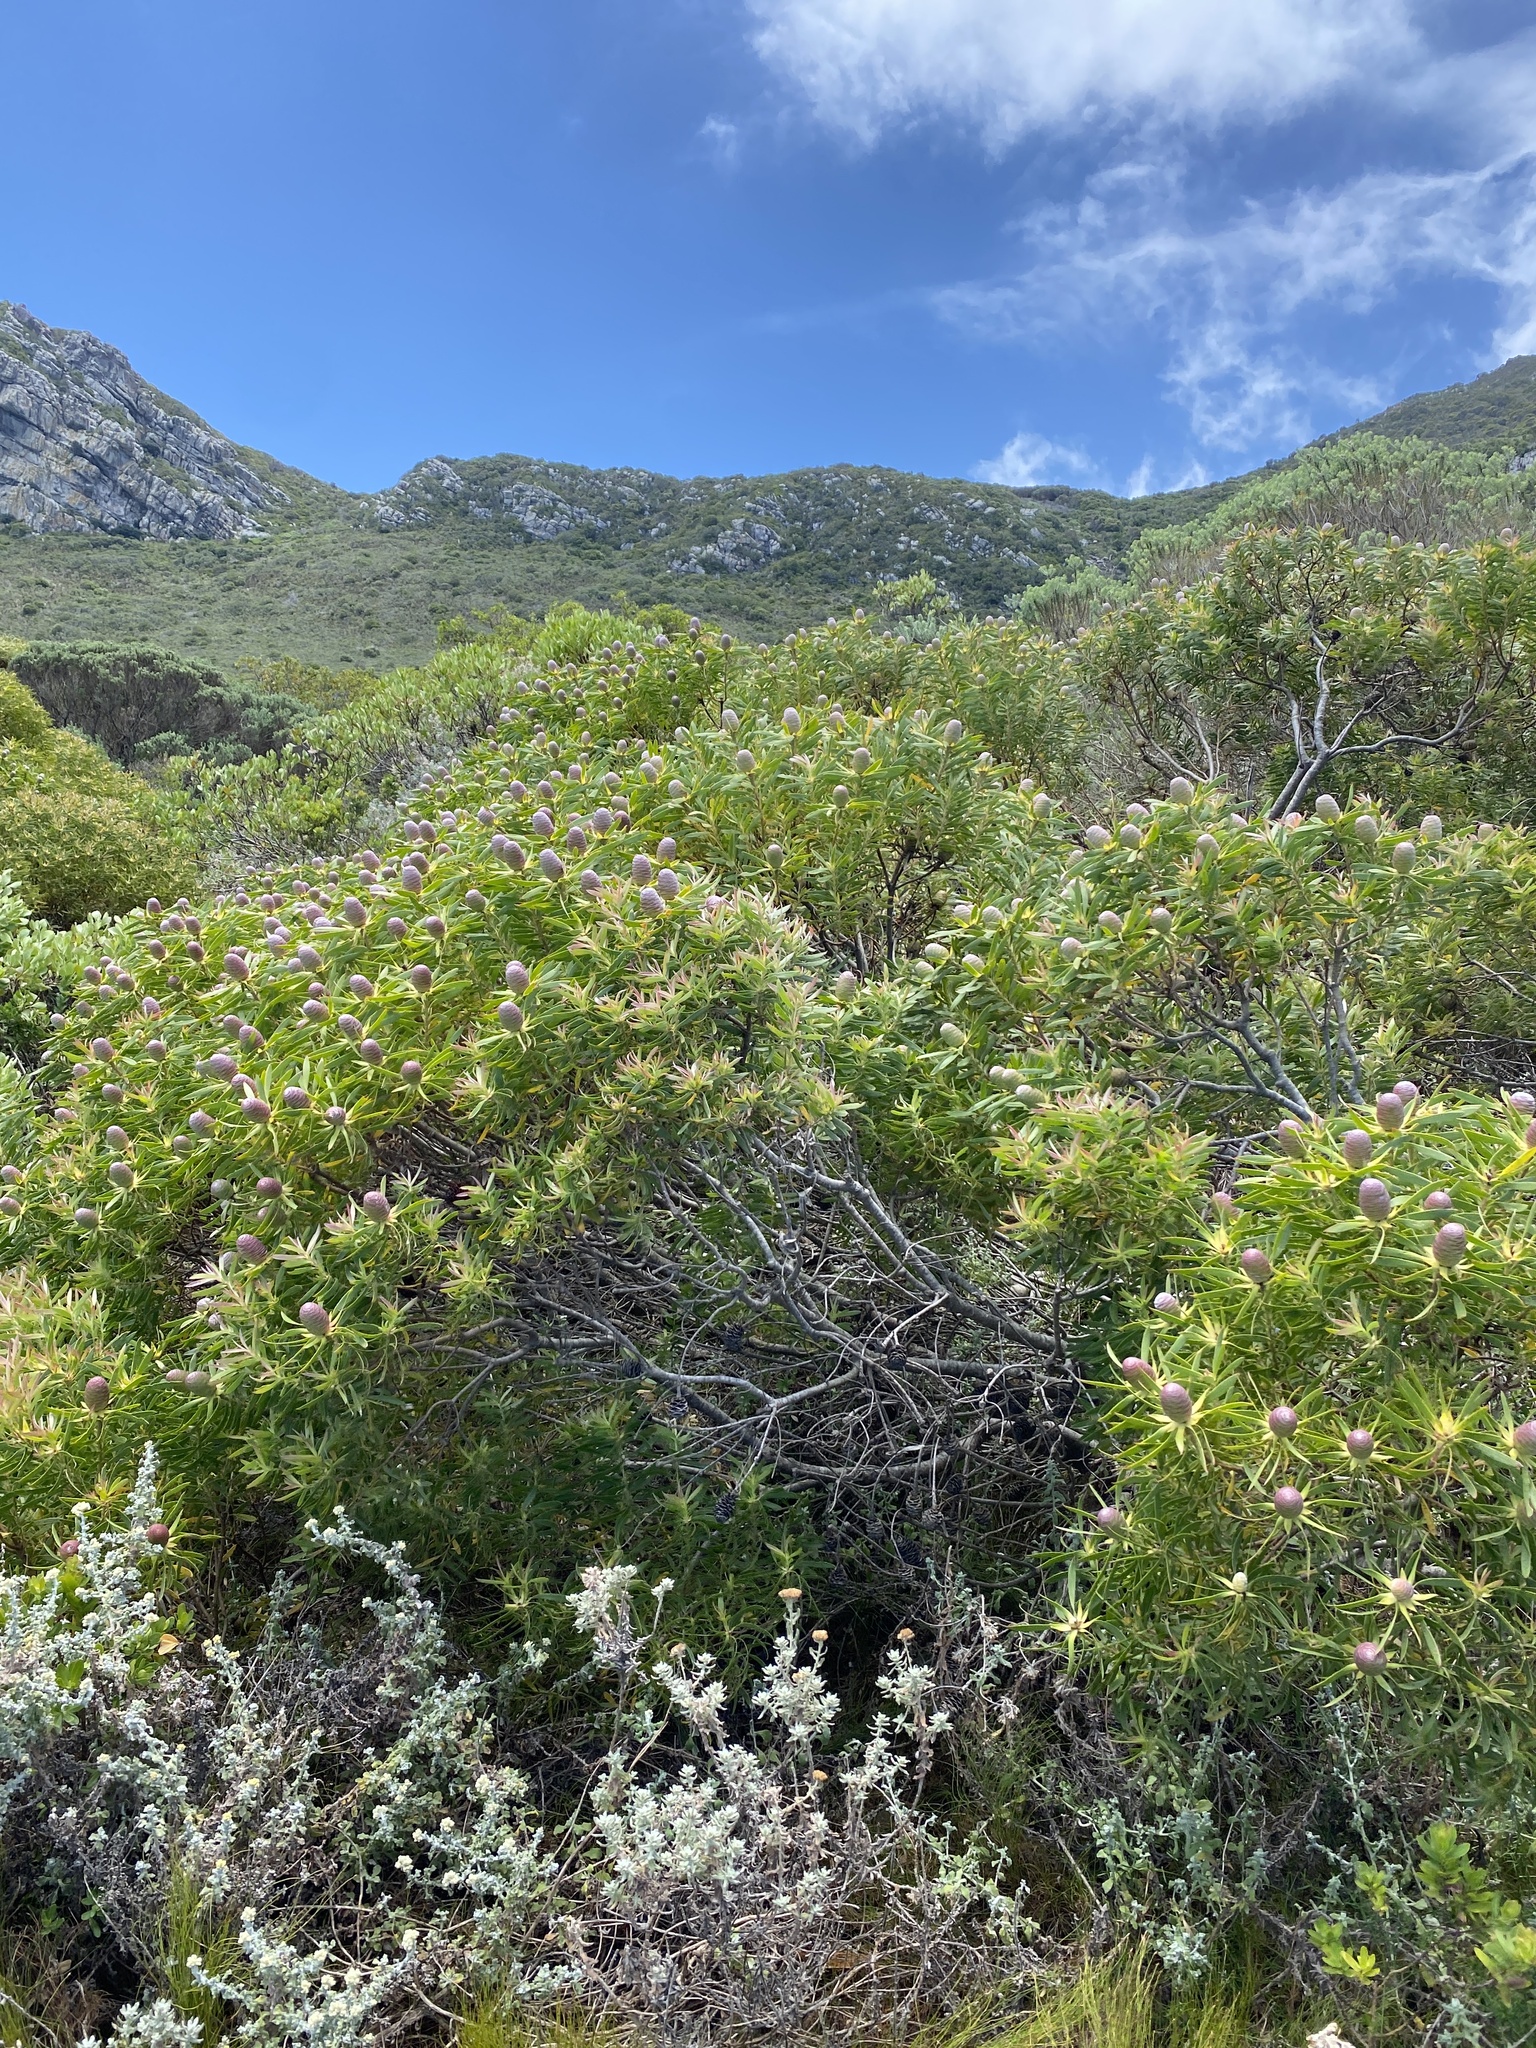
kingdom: Plantae
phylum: Tracheophyta
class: Magnoliopsida
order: Proteales
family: Proteaceae
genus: Leucadendron
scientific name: Leucadendron coniferum
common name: Dune conebush
